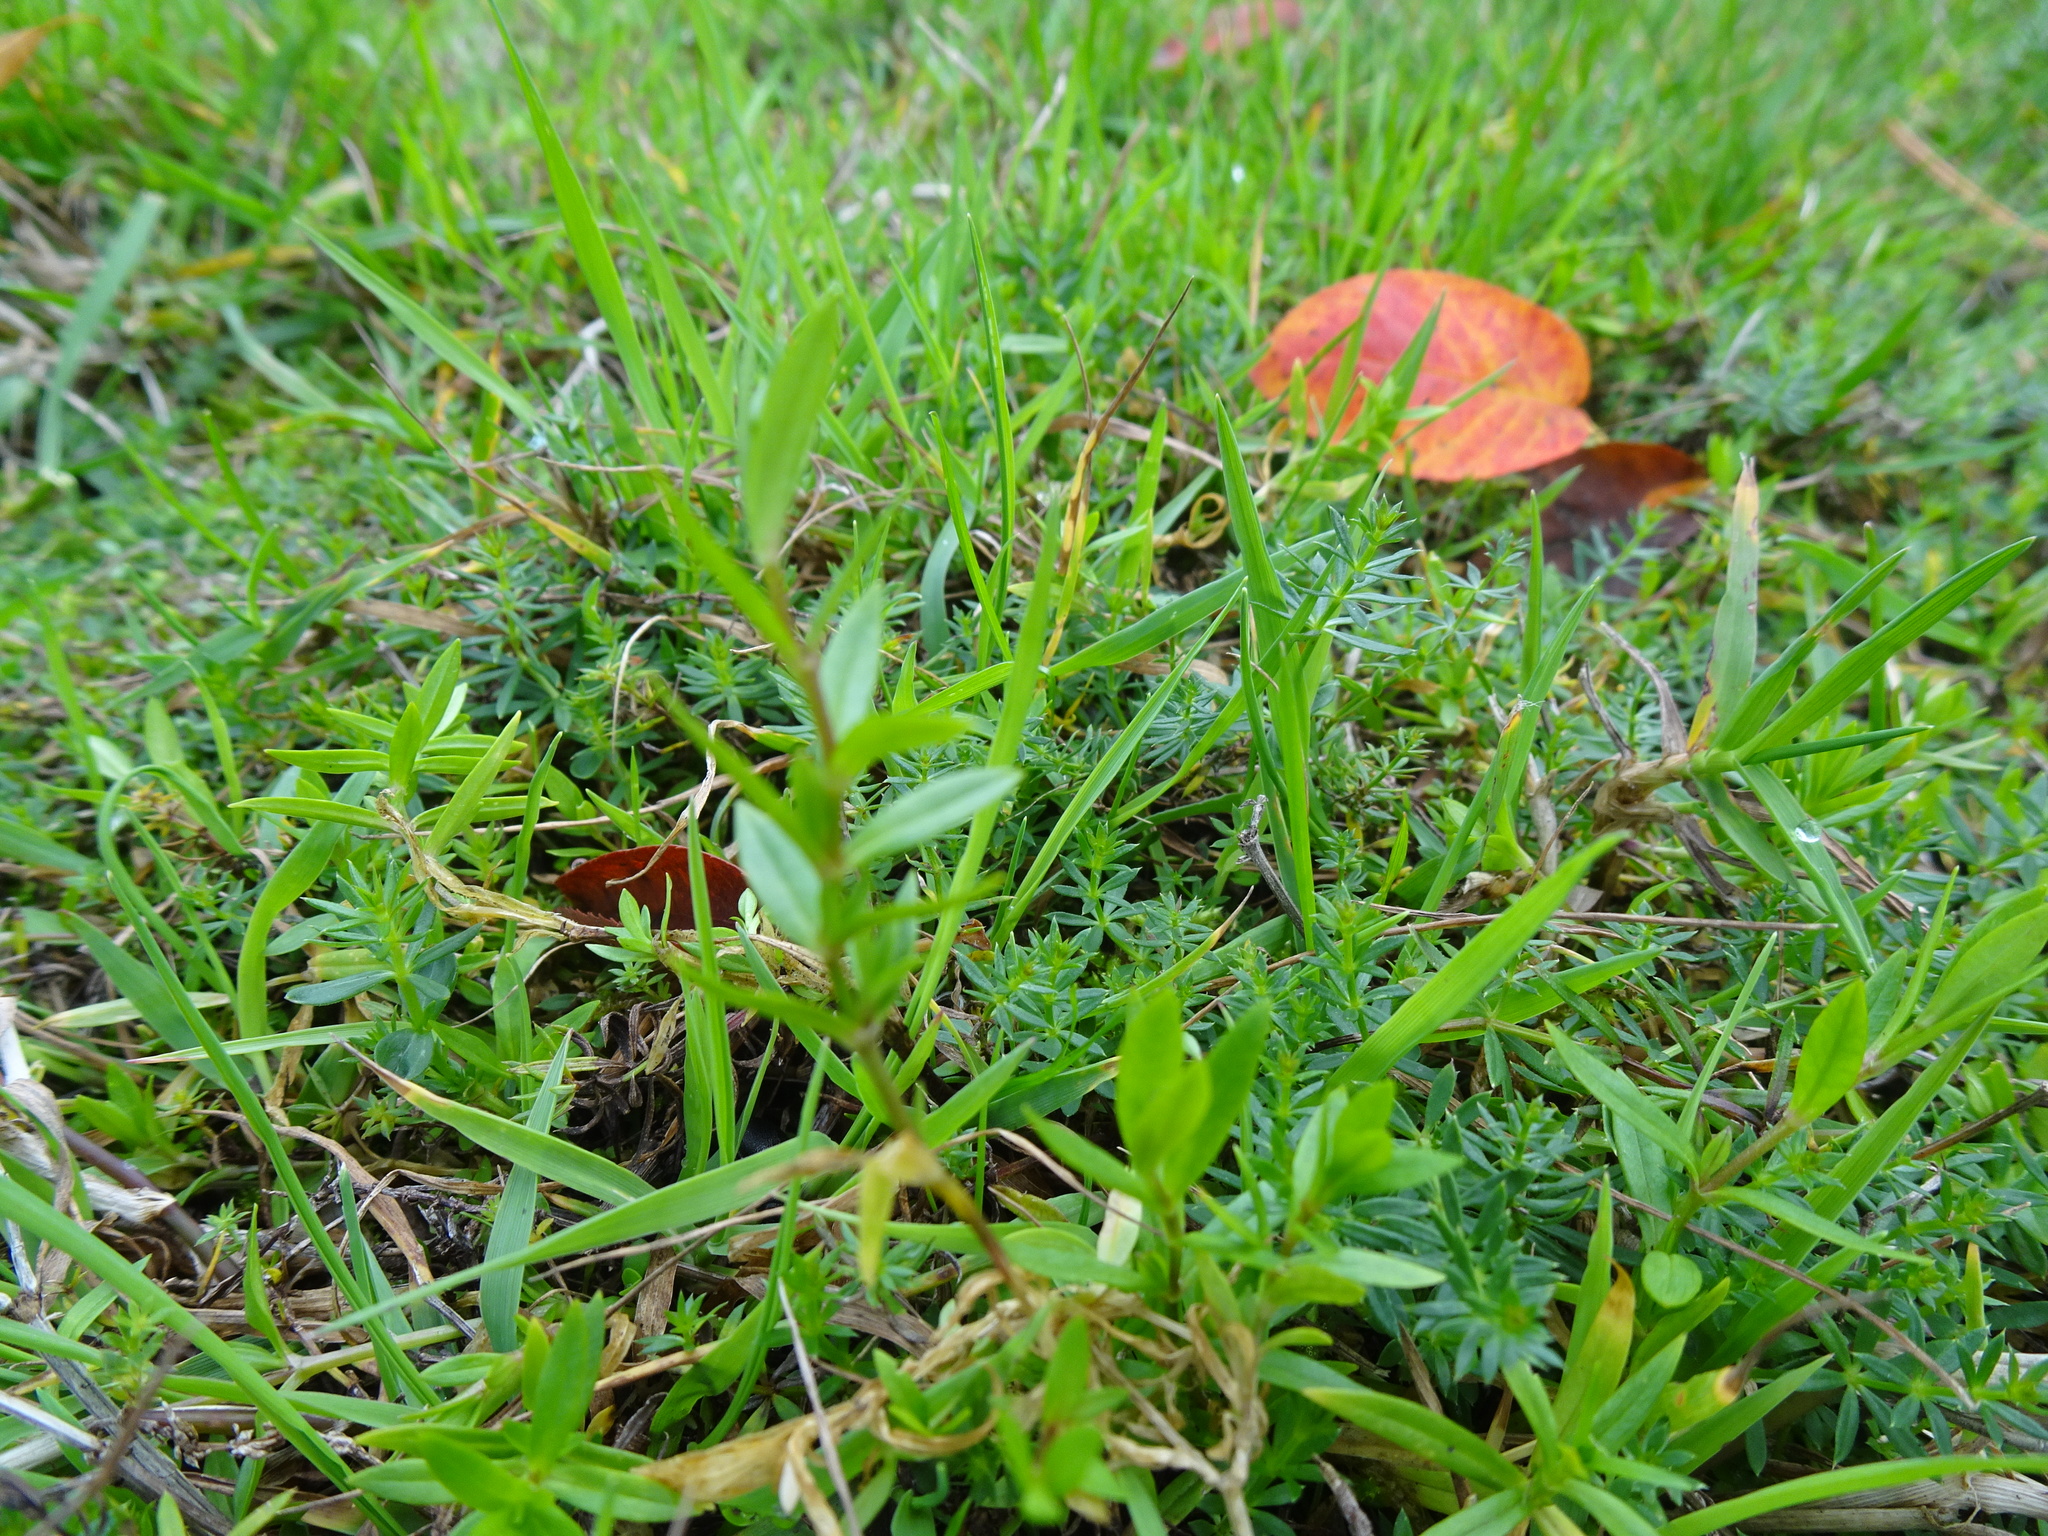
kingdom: Plantae
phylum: Tracheophyta
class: Magnoliopsida
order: Caryophyllales
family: Caryophyllaceae
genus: Stellaria
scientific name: Stellaria graminea
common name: Grass-like starwort
